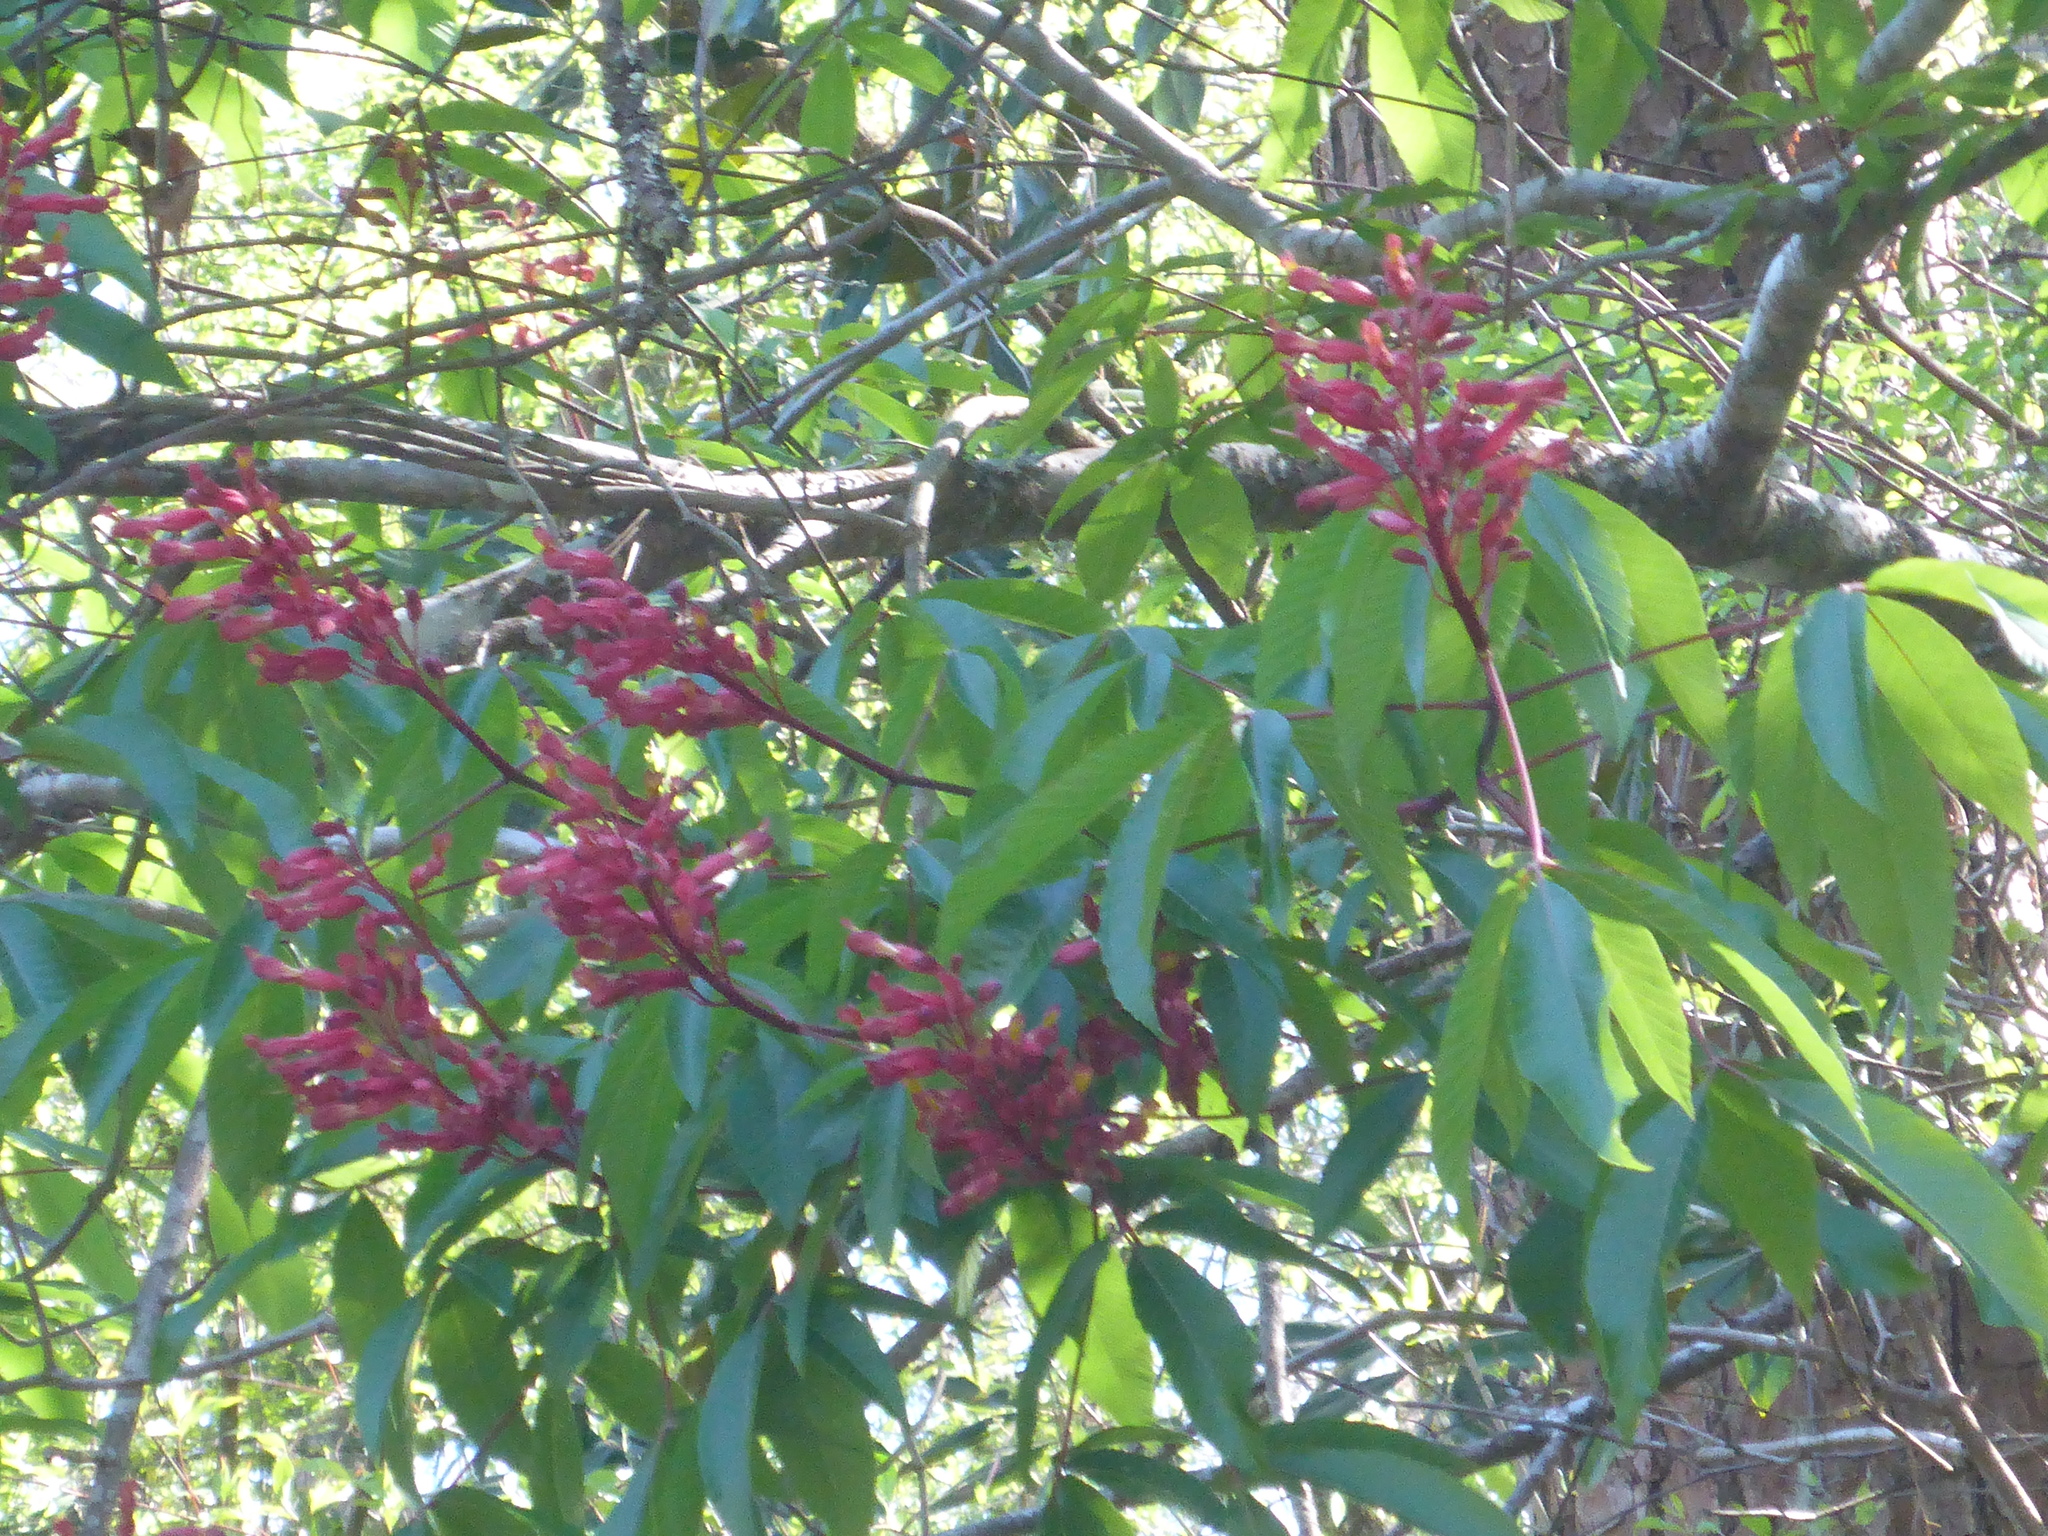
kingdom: Plantae
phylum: Tracheophyta
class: Magnoliopsida
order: Sapindales
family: Sapindaceae
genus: Aesculus
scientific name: Aesculus pavia
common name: Red buckeye
